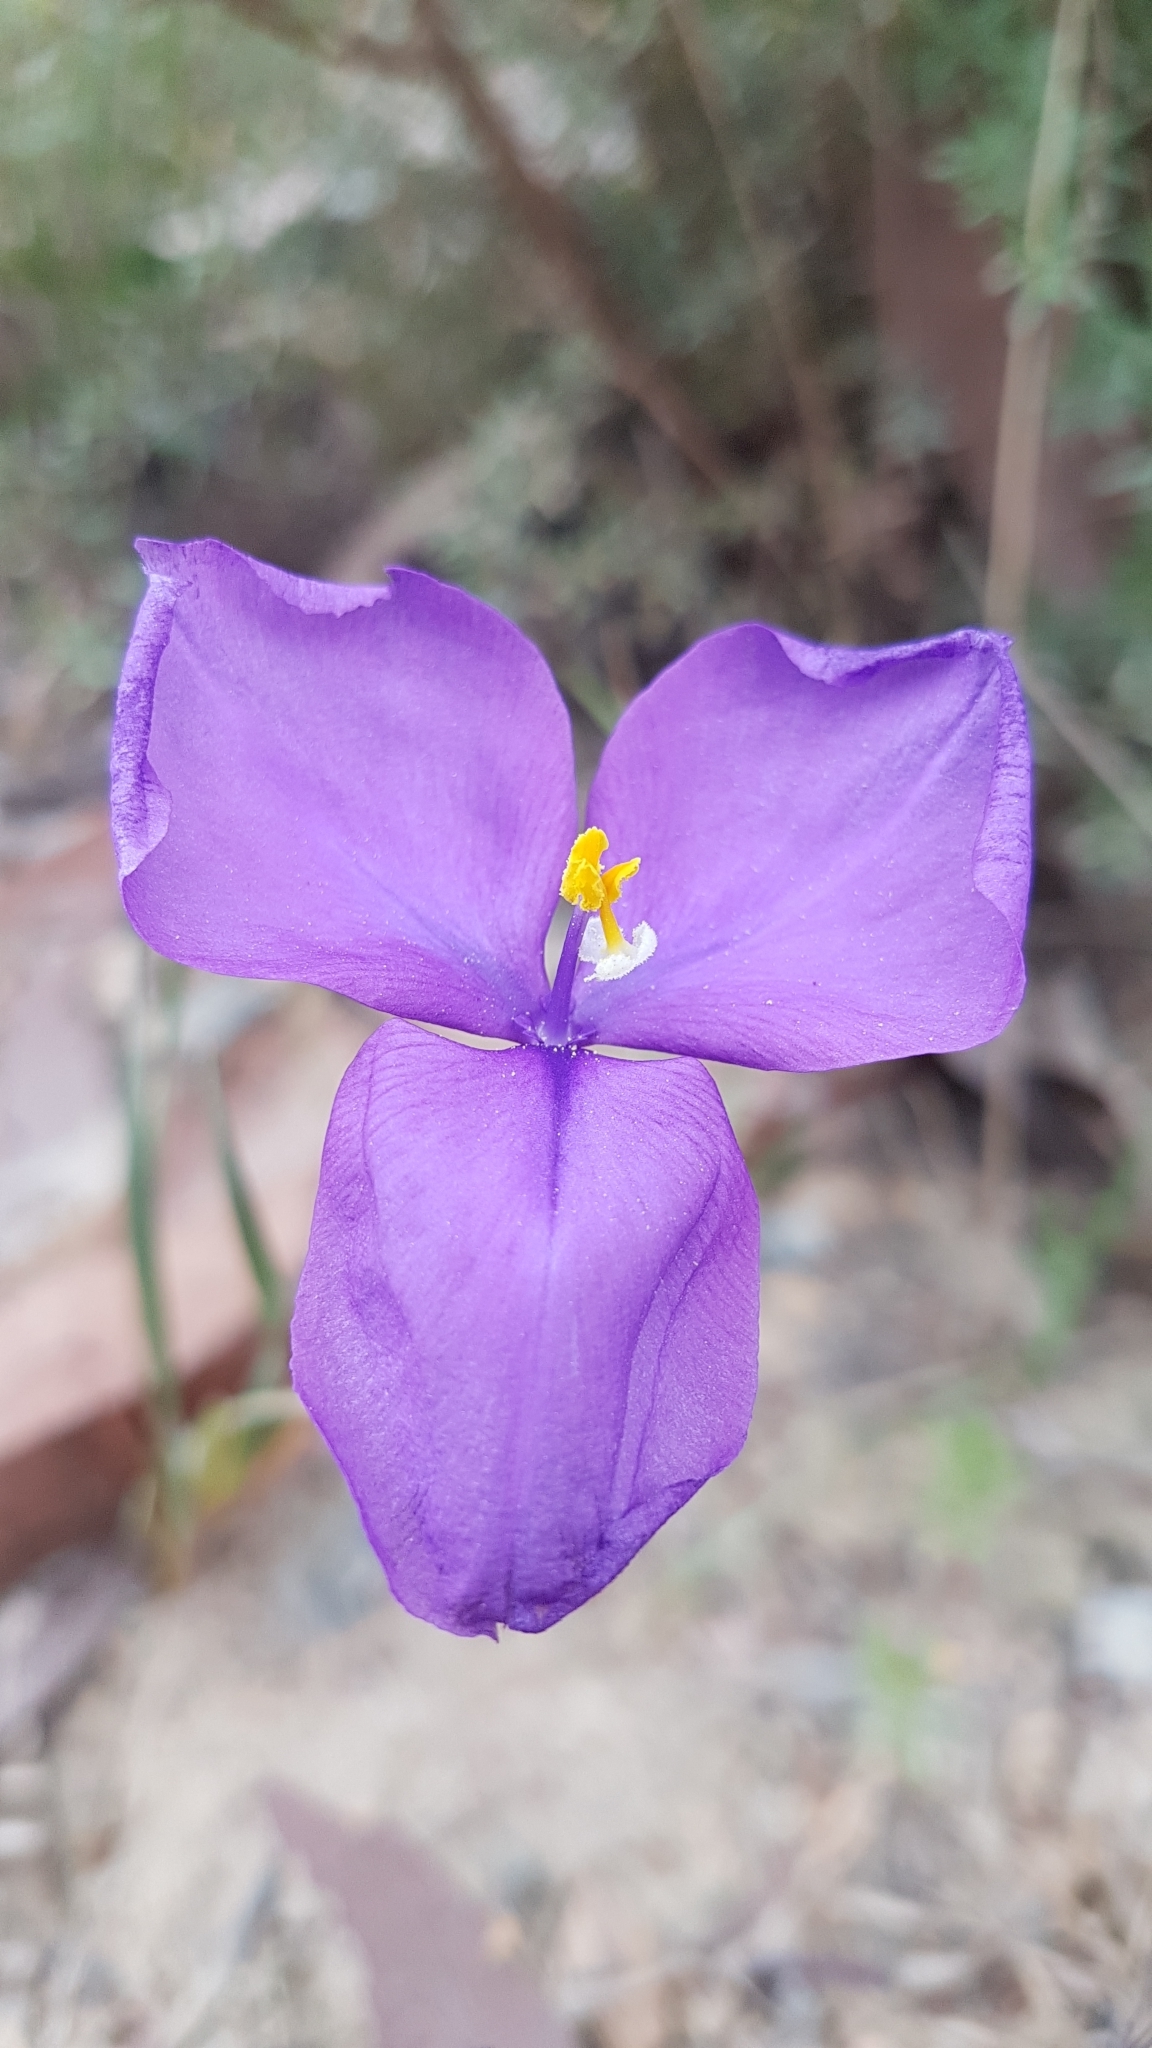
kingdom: Plantae
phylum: Tracheophyta
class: Liliopsida
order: Asparagales
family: Iridaceae
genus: Patersonia
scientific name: Patersonia sericea
